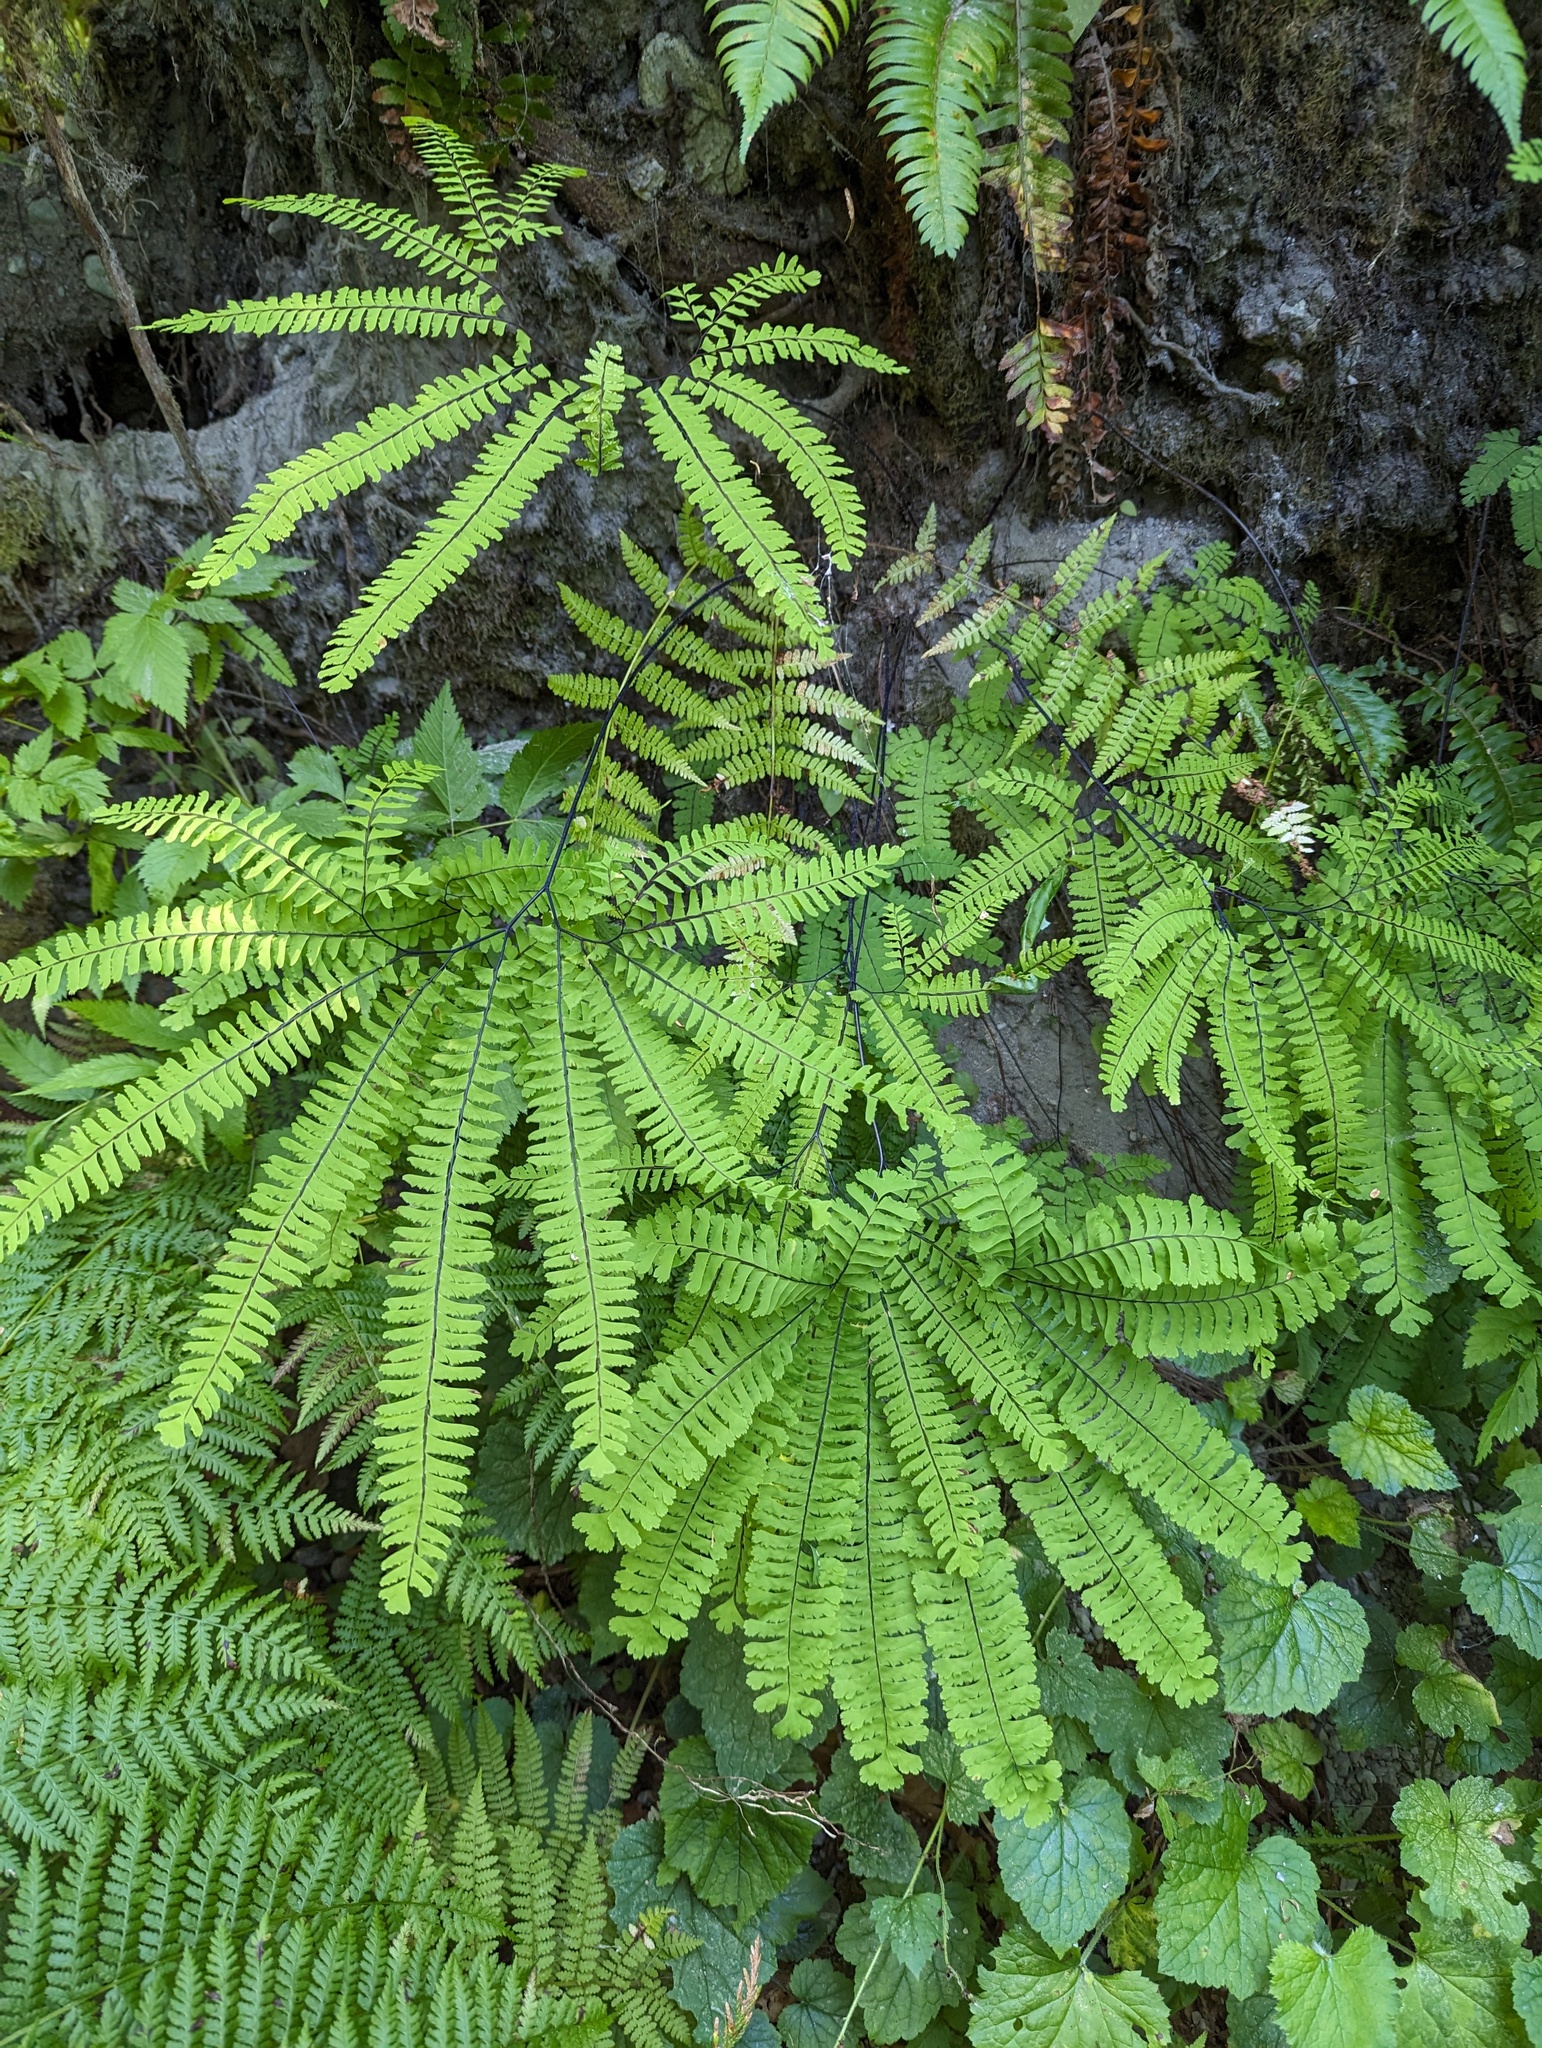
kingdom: Plantae
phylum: Tracheophyta
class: Polypodiopsida
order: Polypodiales
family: Pteridaceae
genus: Adiantum
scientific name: Adiantum aleuticum
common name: Aleutian maidenhair fern
